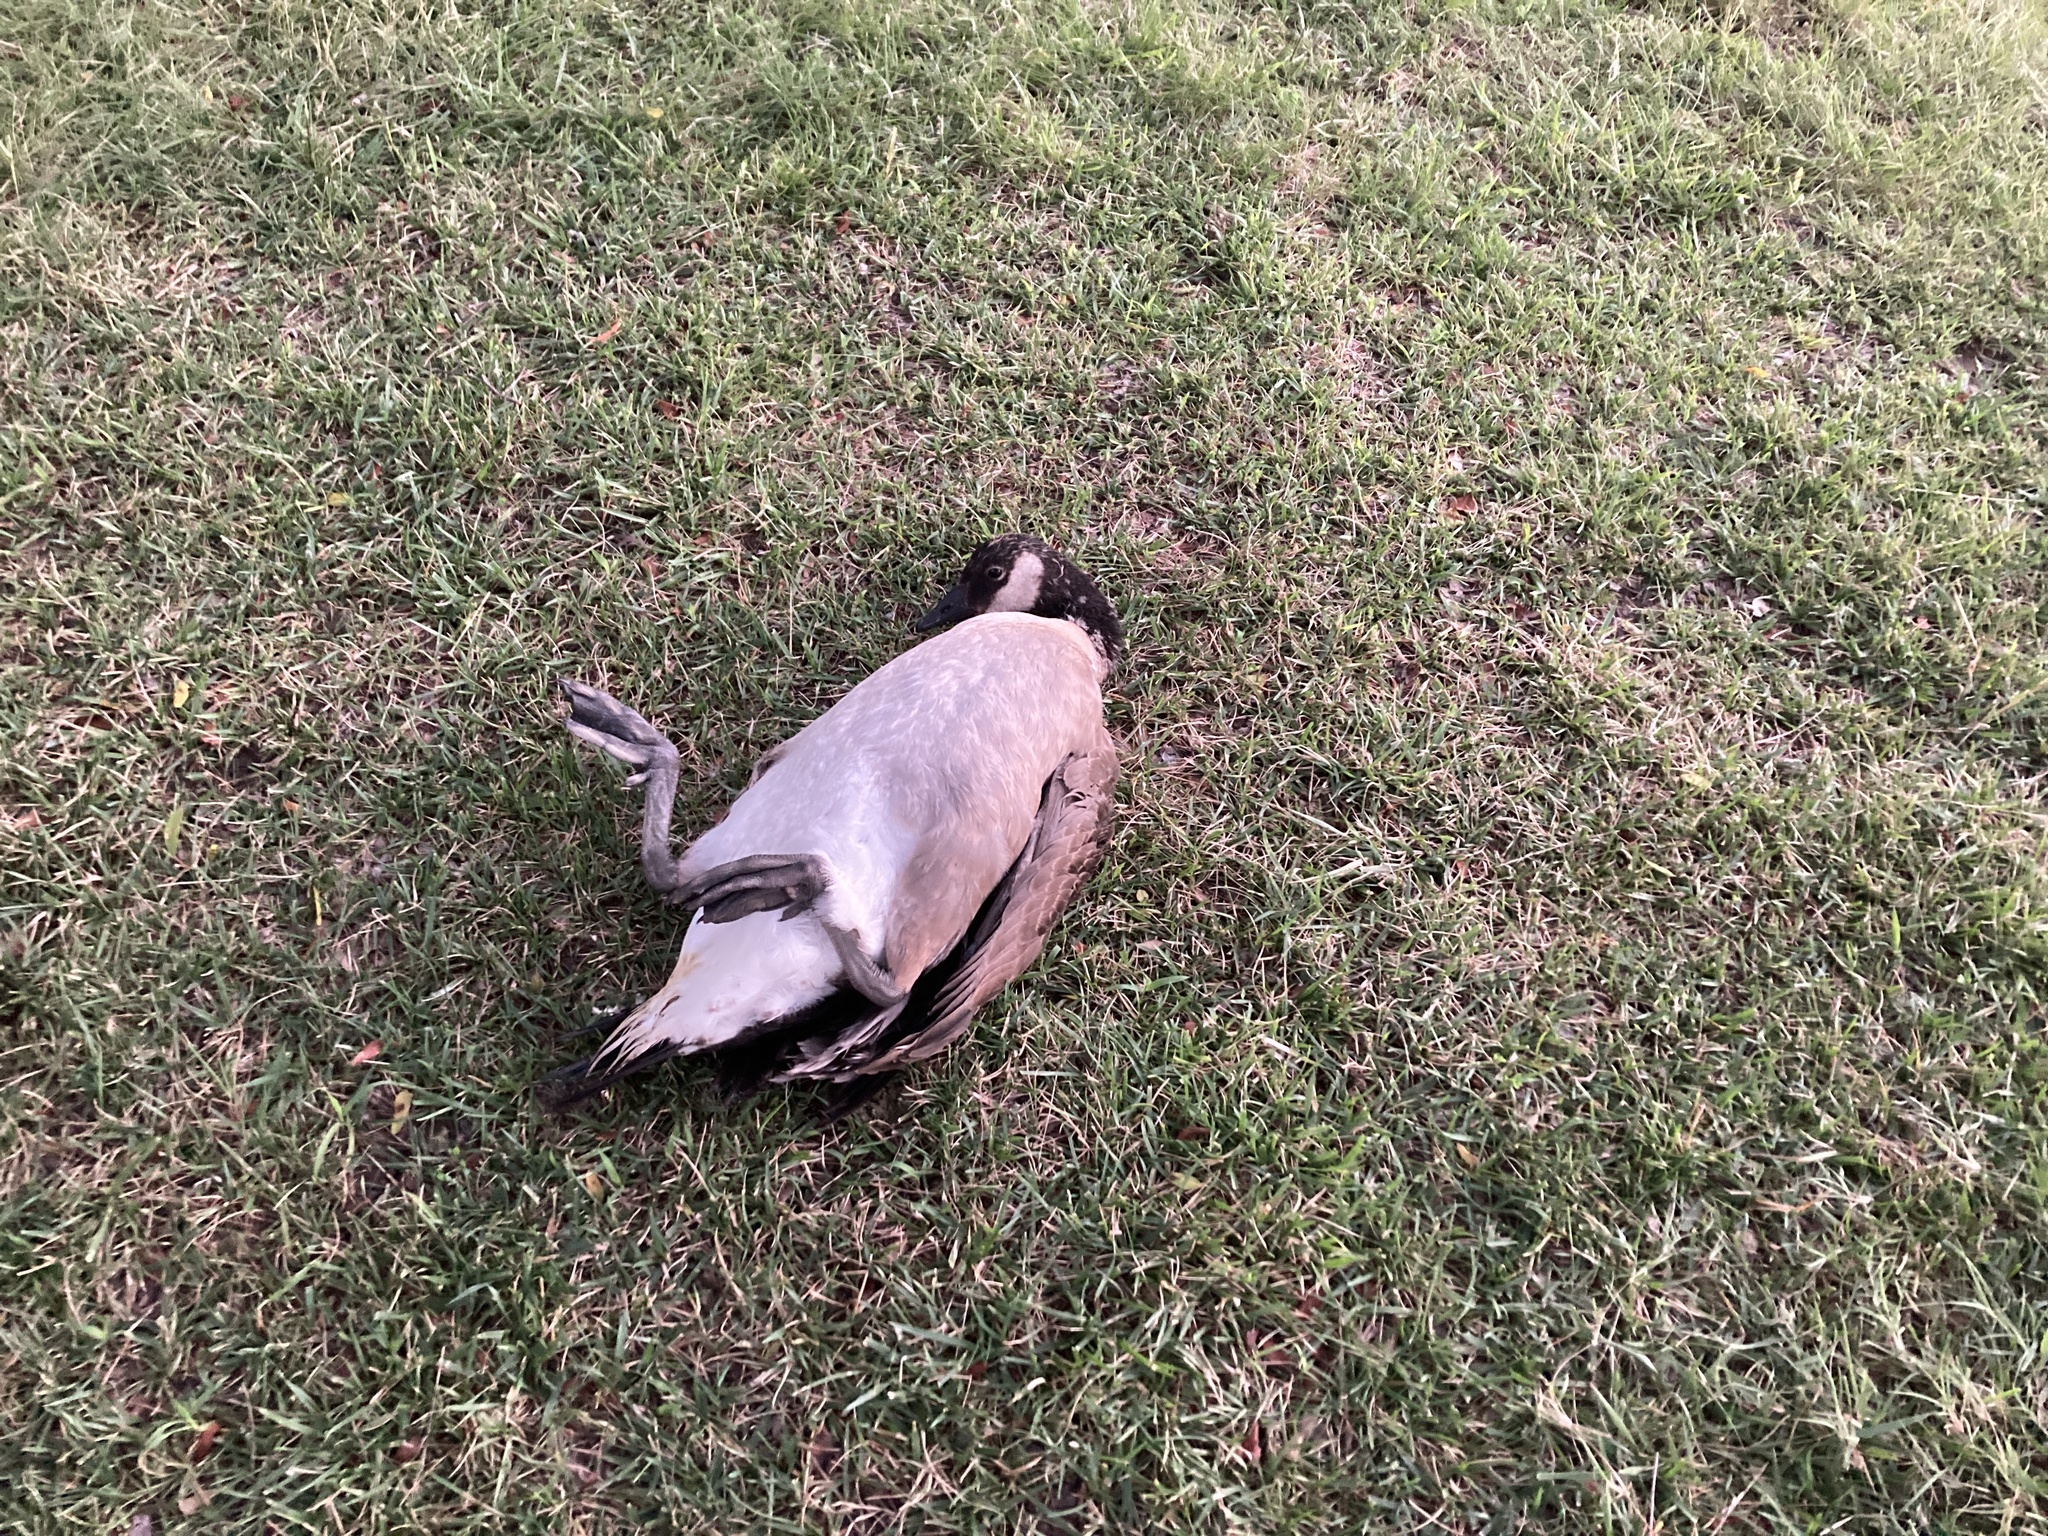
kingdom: Animalia
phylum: Chordata
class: Aves
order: Anseriformes
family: Anatidae
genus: Branta
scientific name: Branta canadensis
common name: Canada goose
